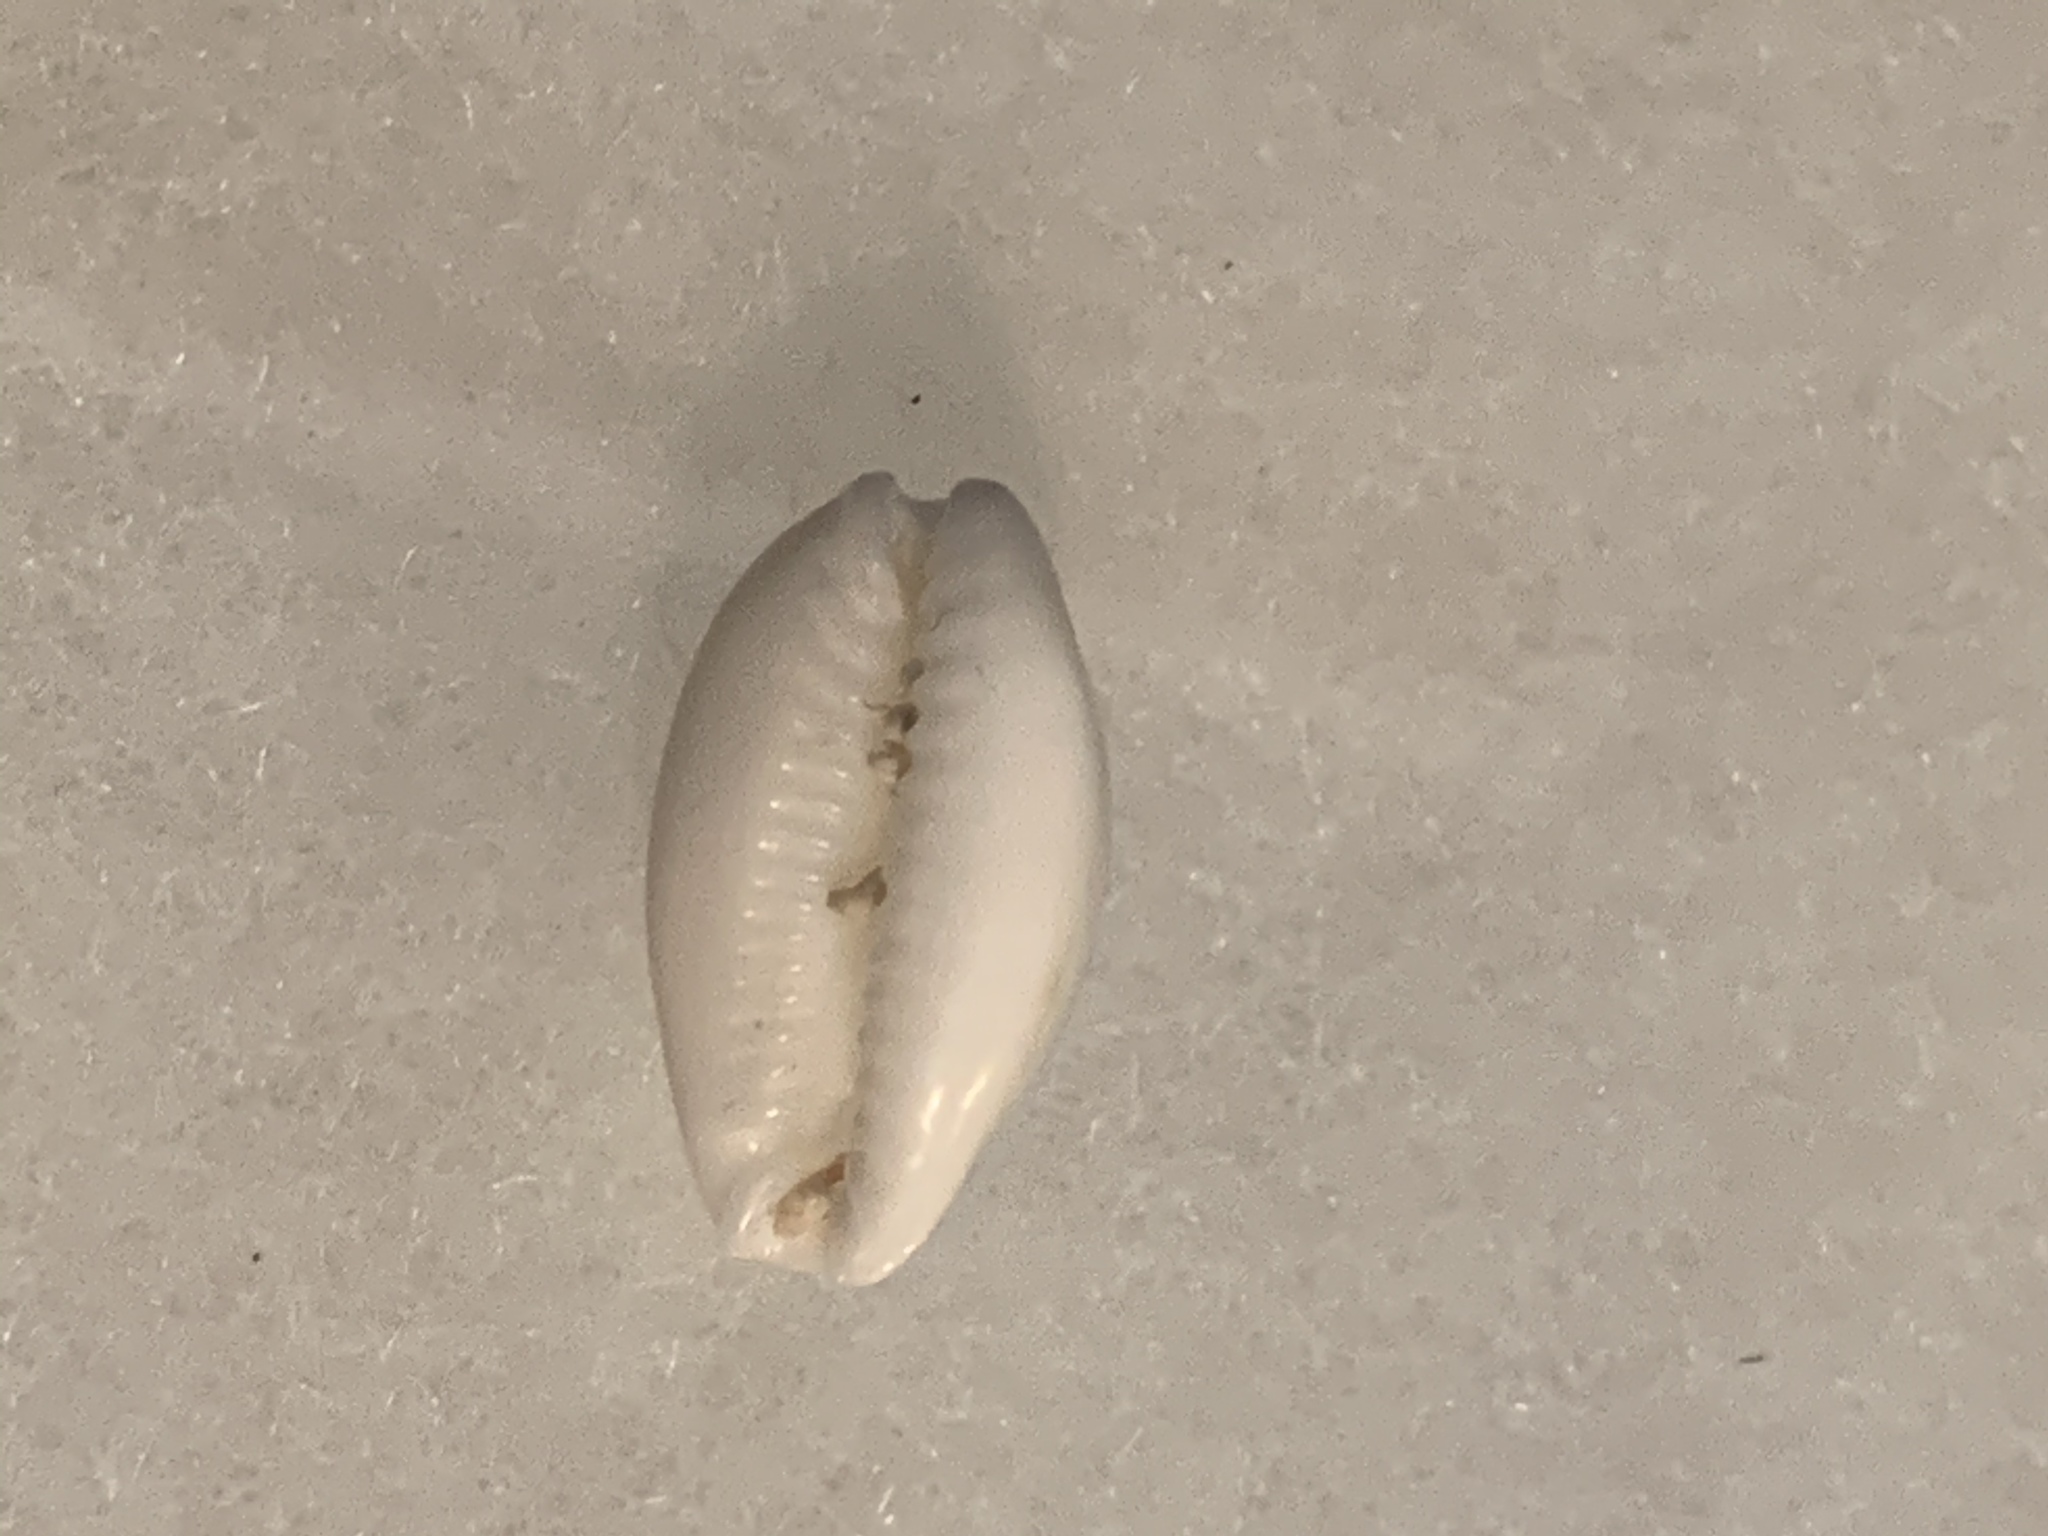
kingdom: Animalia
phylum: Mollusca
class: Gastropoda
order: Littorinimorpha
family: Cypraeidae
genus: Naria
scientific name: Naria acicularis
